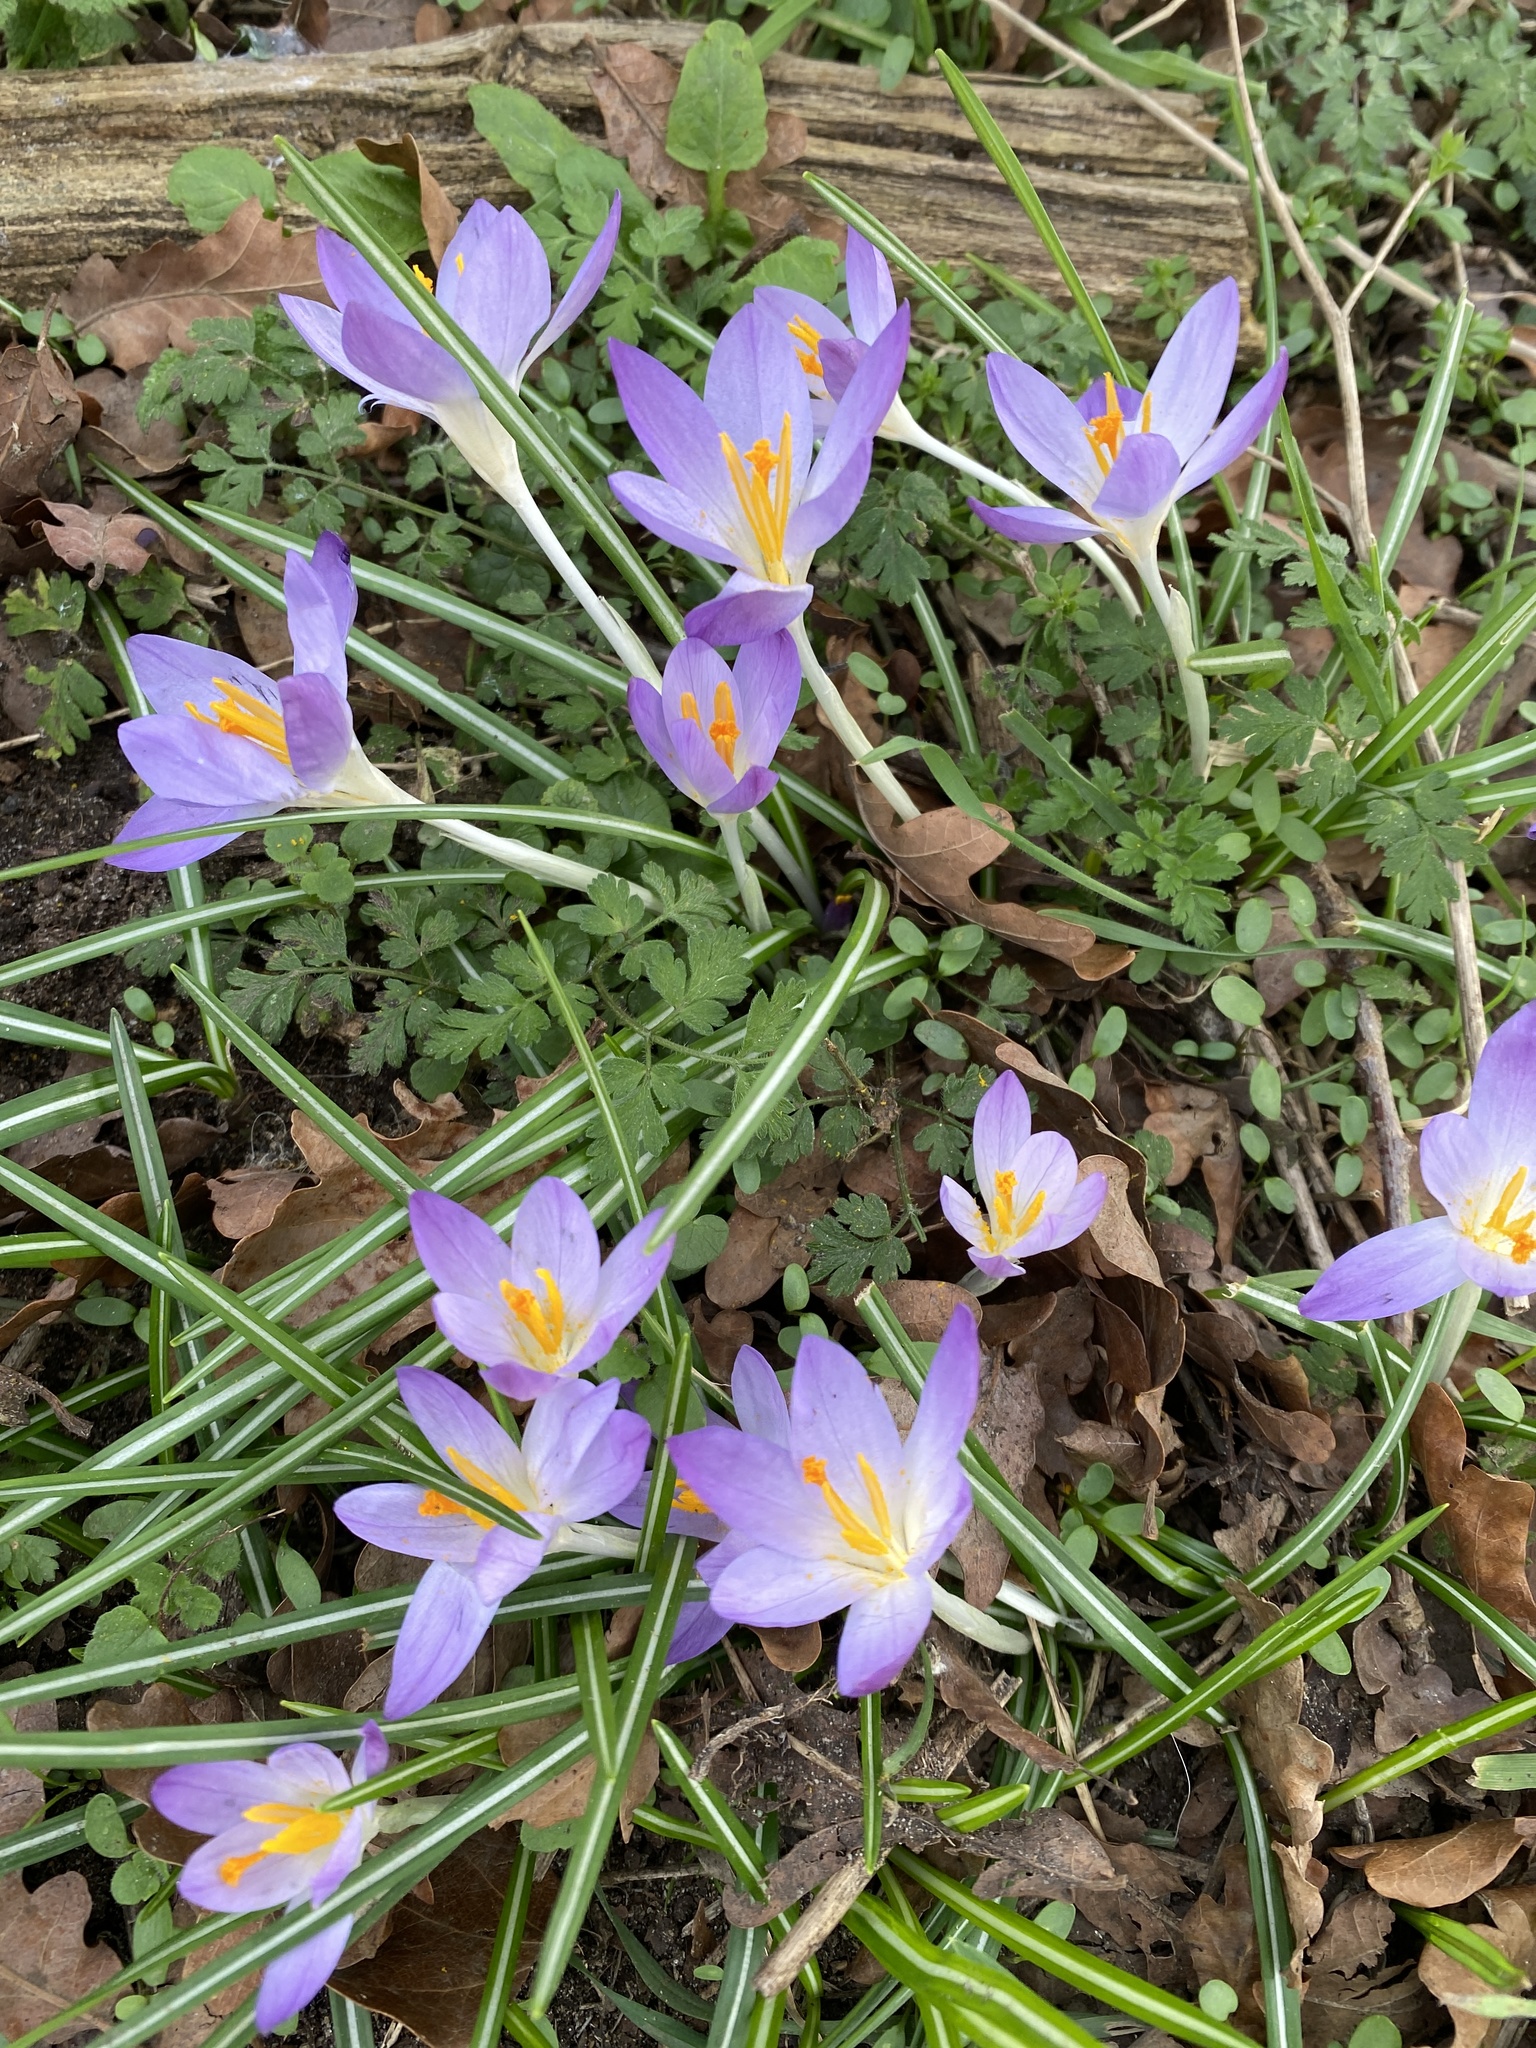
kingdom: Plantae
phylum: Tracheophyta
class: Liliopsida
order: Asparagales
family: Iridaceae
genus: Crocus
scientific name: Crocus tommasinianus
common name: Early crocus
